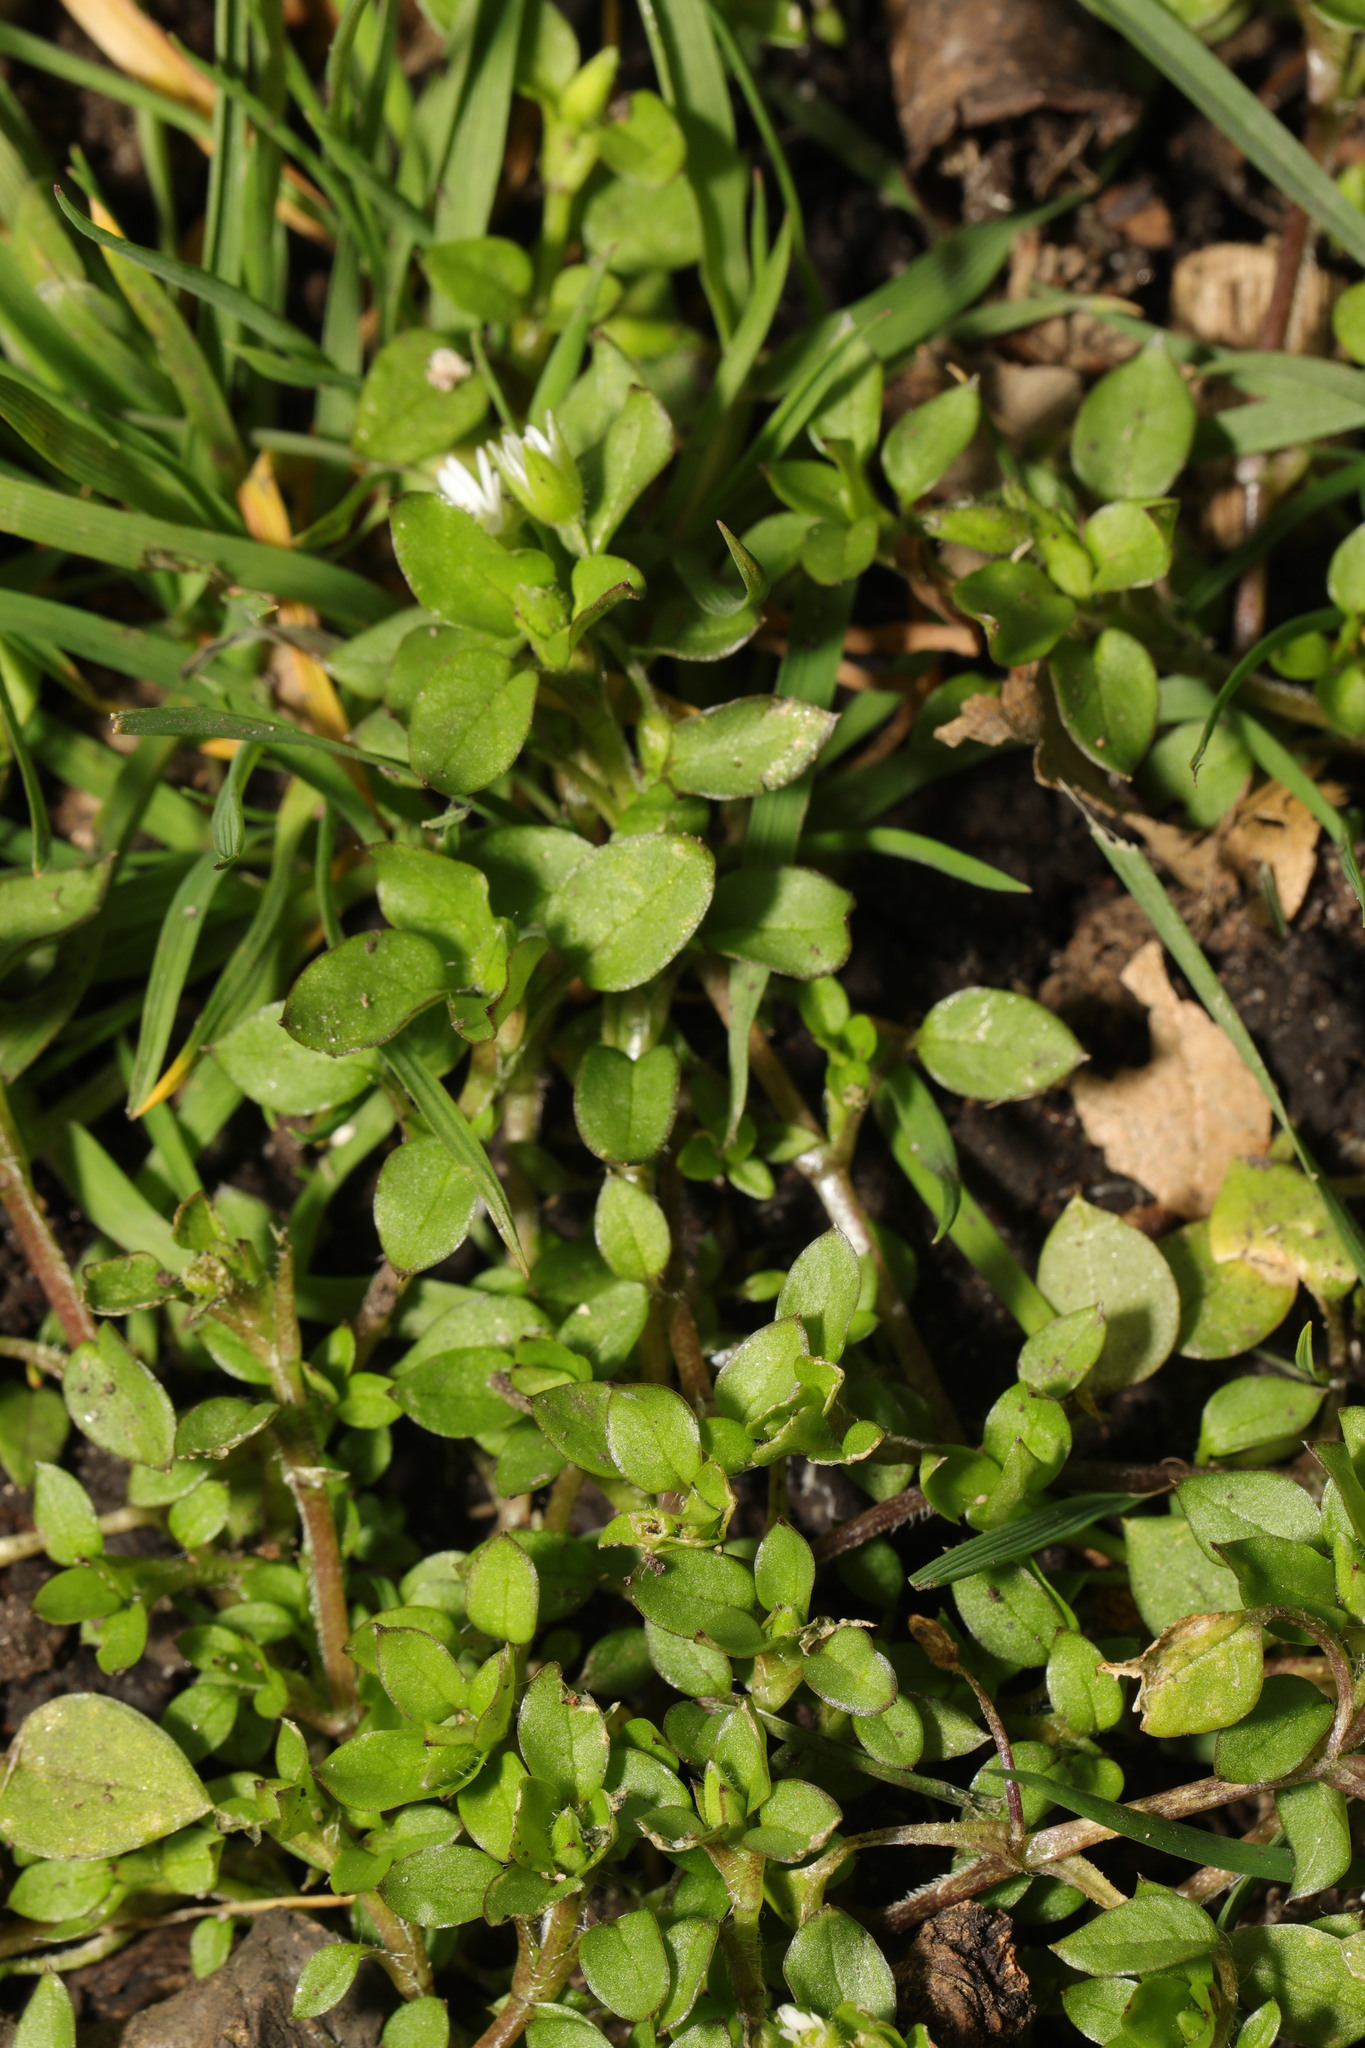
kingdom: Plantae
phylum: Tracheophyta
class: Magnoliopsida
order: Caryophyllales
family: Caryophyllaceae
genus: Stellaria
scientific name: Stellaria media
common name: Common chickweed
